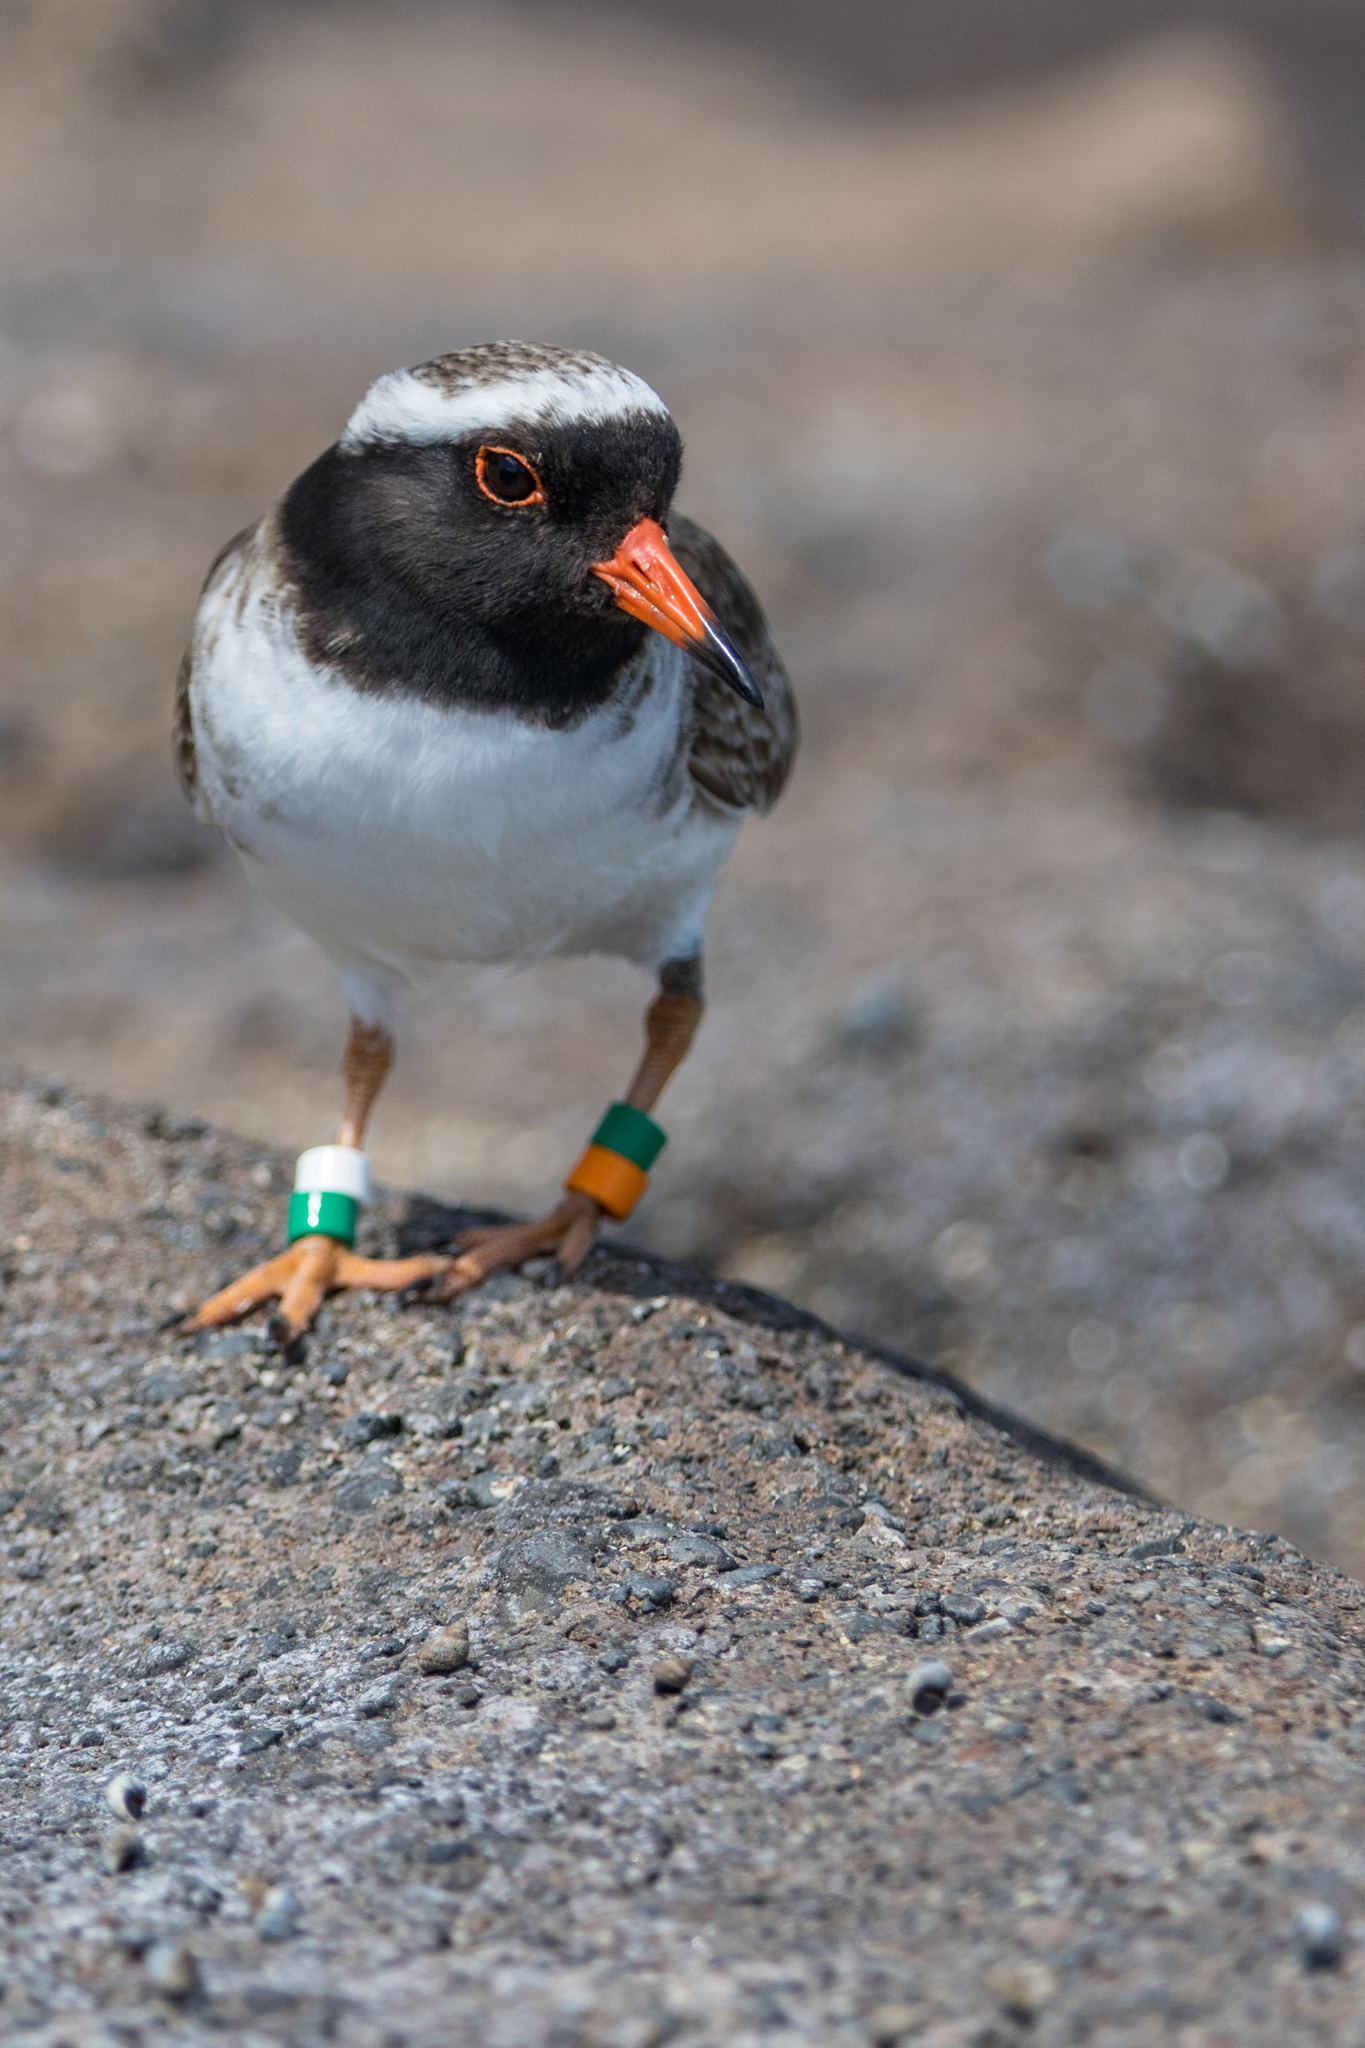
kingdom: Animalia
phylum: Chordata
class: Aves
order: Charadriiformes
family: Charadriidae
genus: Thinornis
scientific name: Thinornis novaeseelandiae
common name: Shore dotterel
